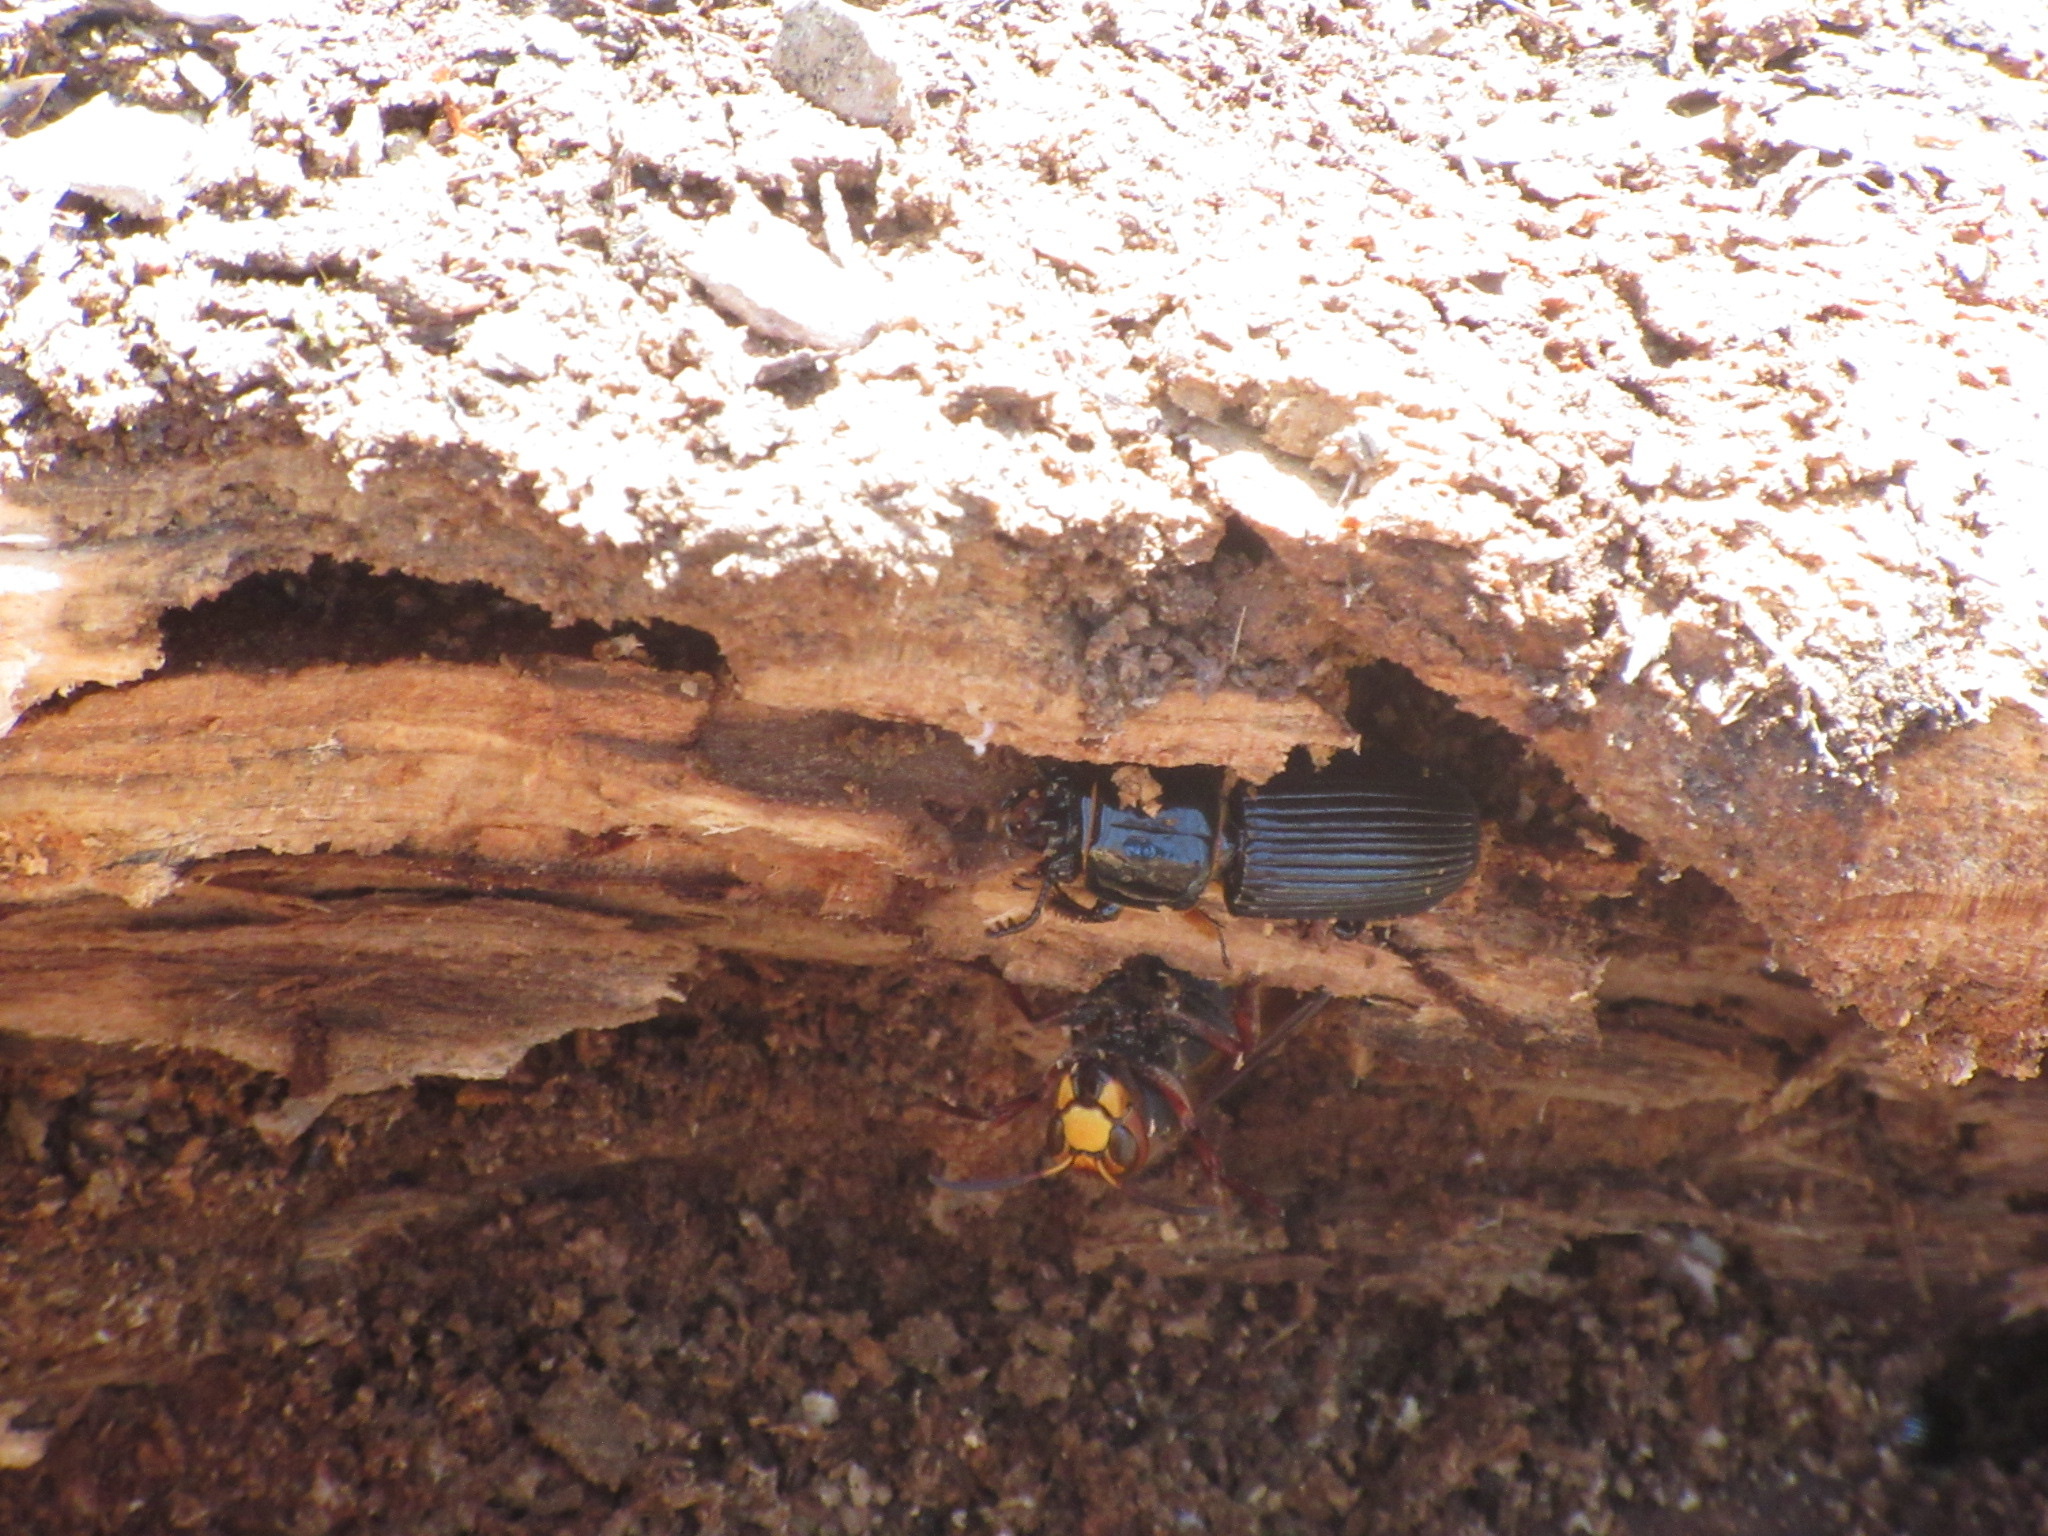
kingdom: Animalia
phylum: Arthropoda
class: Insecta
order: Coleoptera
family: Passalidae
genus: Odontotaenius
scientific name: Odontotaenius disjunctus
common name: Patent leather beetle
